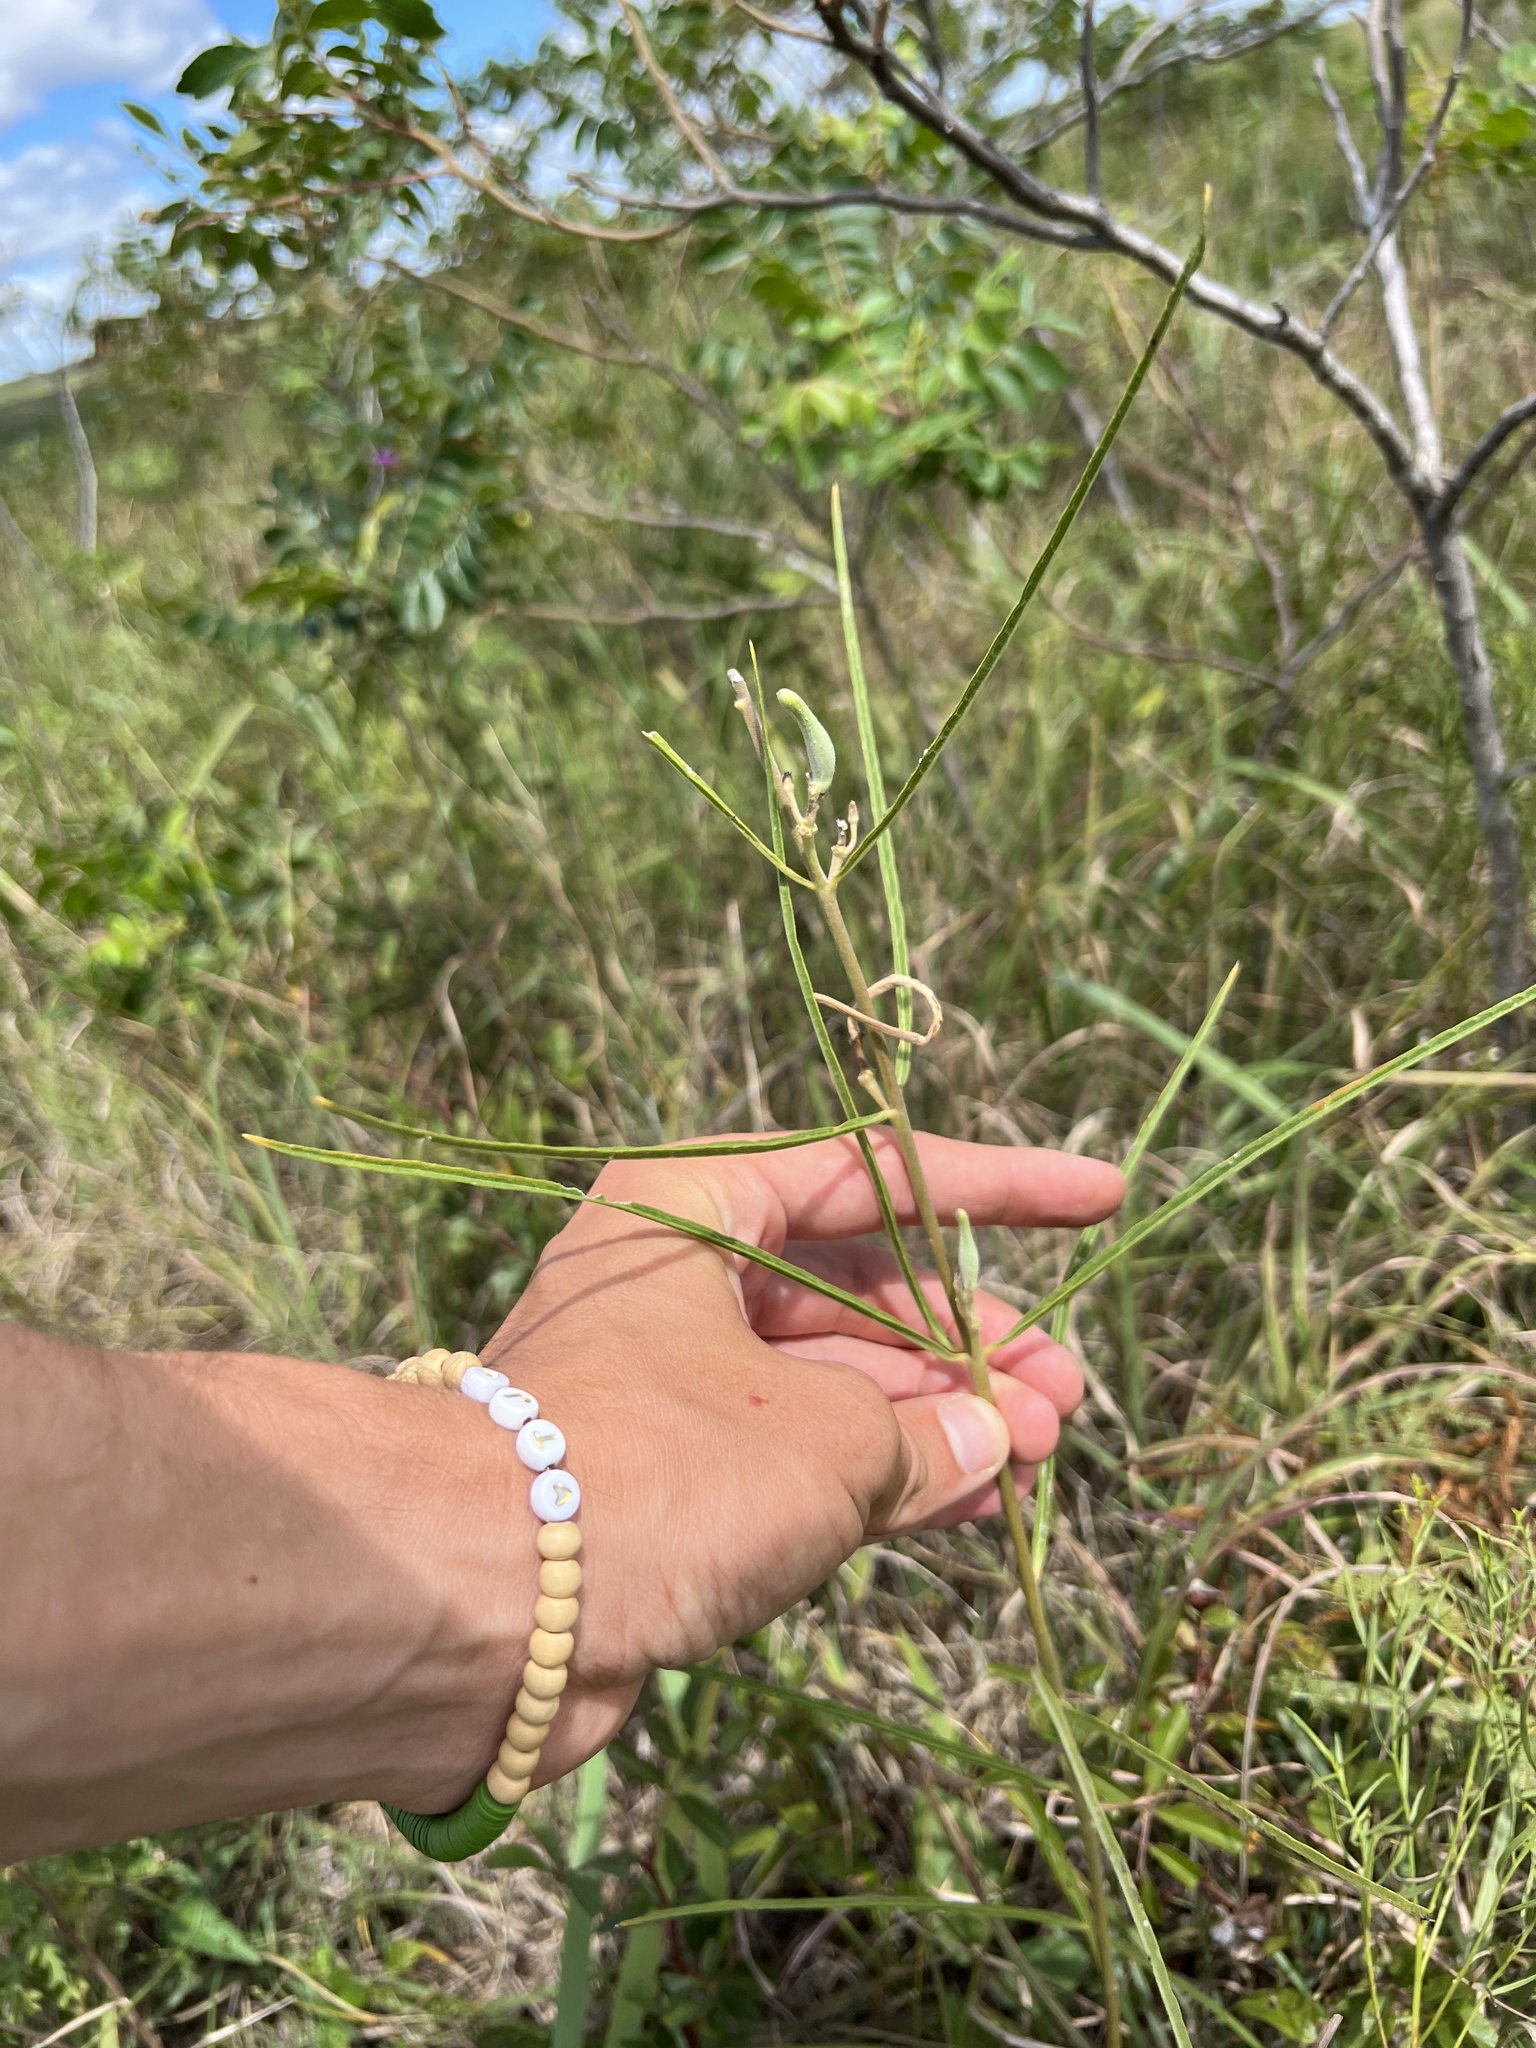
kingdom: Plantae
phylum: Tracheophyta
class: Magnoliopsida
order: Gentianales
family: Apocynaceae
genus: Asclepias
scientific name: Asclepias stenophylla
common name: Narrow-leaf milkweed
